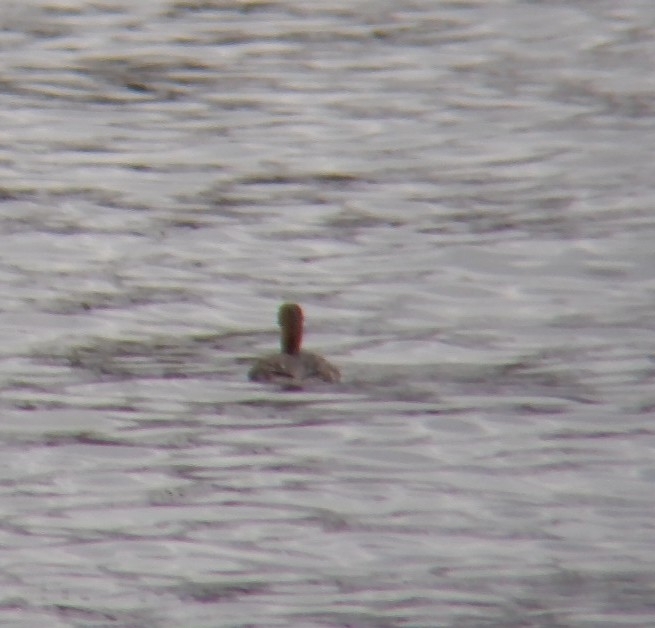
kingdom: Animalia
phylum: Chordata
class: Aves
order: Anseriformes
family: Anatidae
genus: Mergus
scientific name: Mergus serrator
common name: Red-breasted merganser
